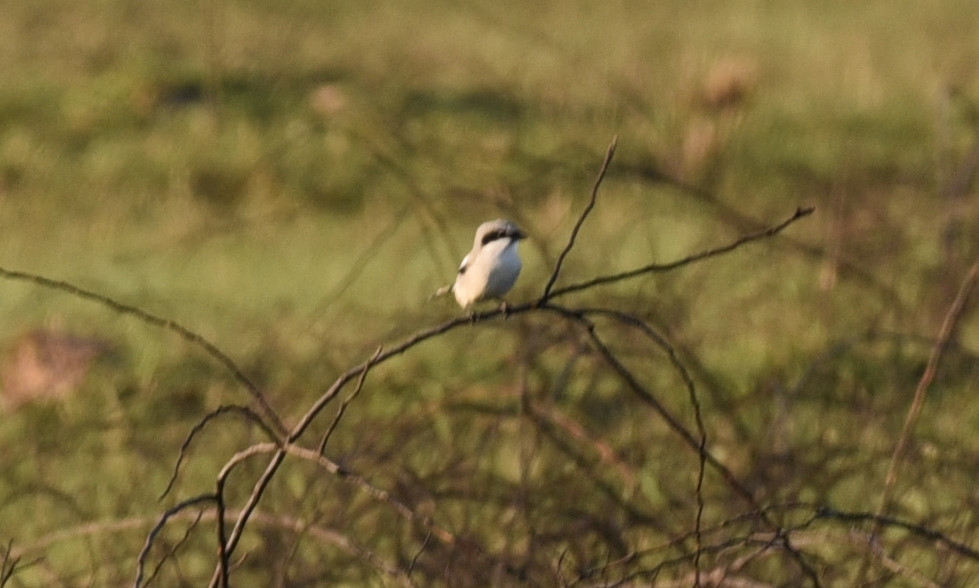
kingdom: Animalia
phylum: Chordata
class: Aves
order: Passeriformes
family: Laniidae
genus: Lanius
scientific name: Lanius ludovicianus
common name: Loggerhead shrike
